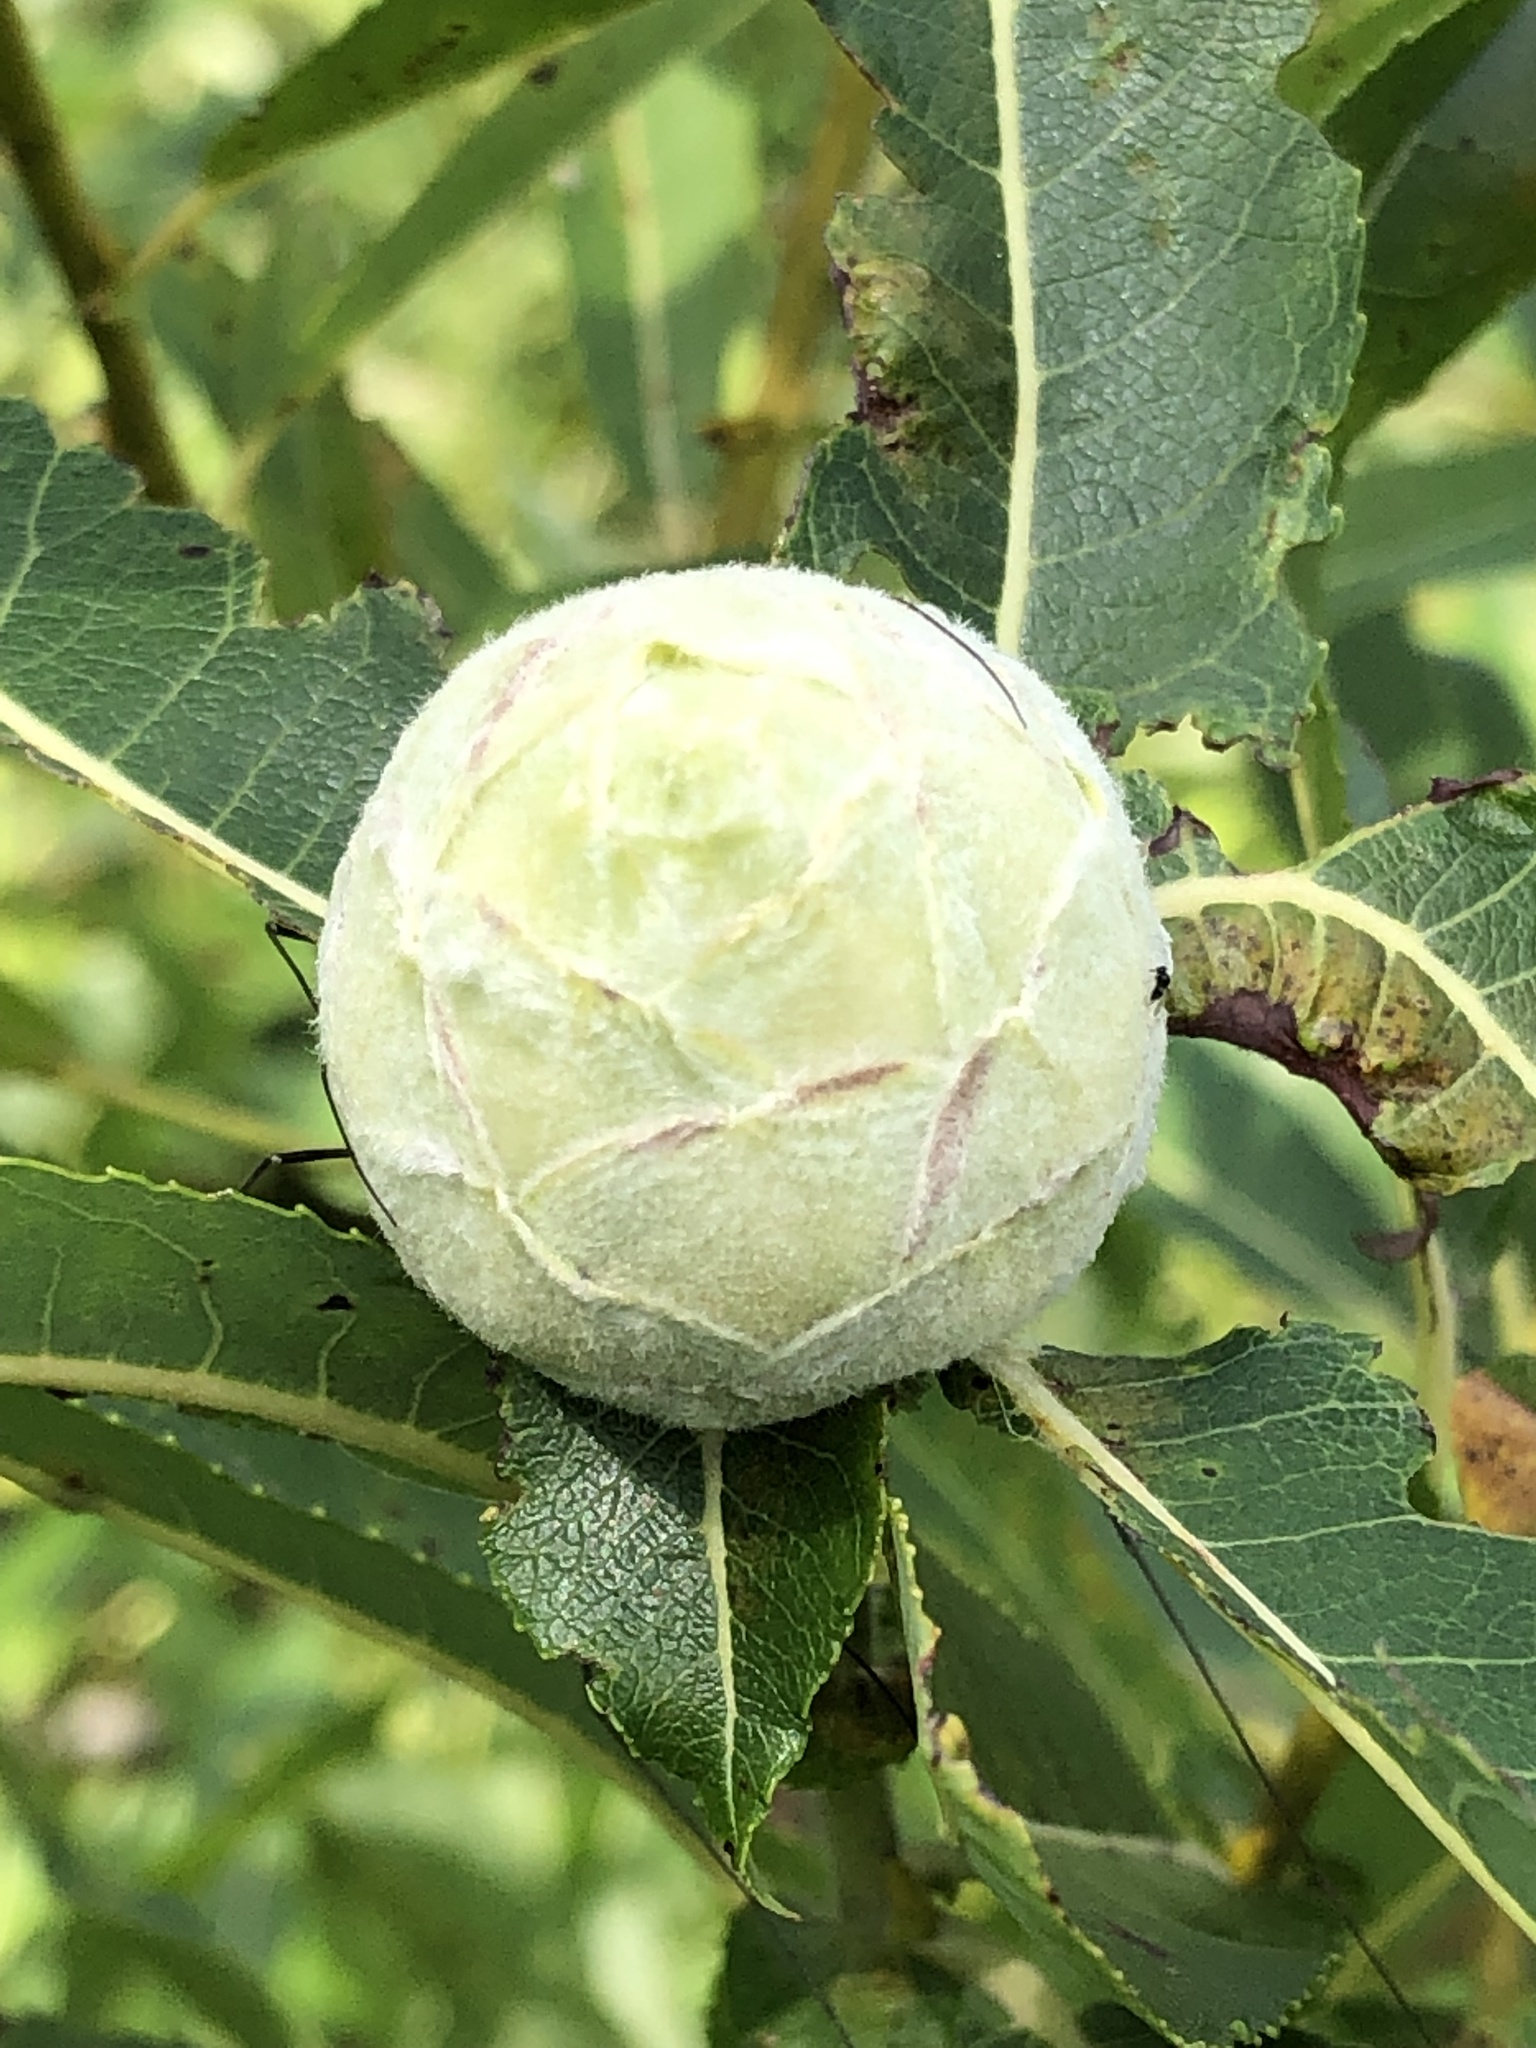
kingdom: Animalia
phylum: Arthropoda
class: Insecta
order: Diptera
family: Cecidomyiidae
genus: Rabdophaga
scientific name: Rabdophaga strobiloides
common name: Willow pinecone gall midge
